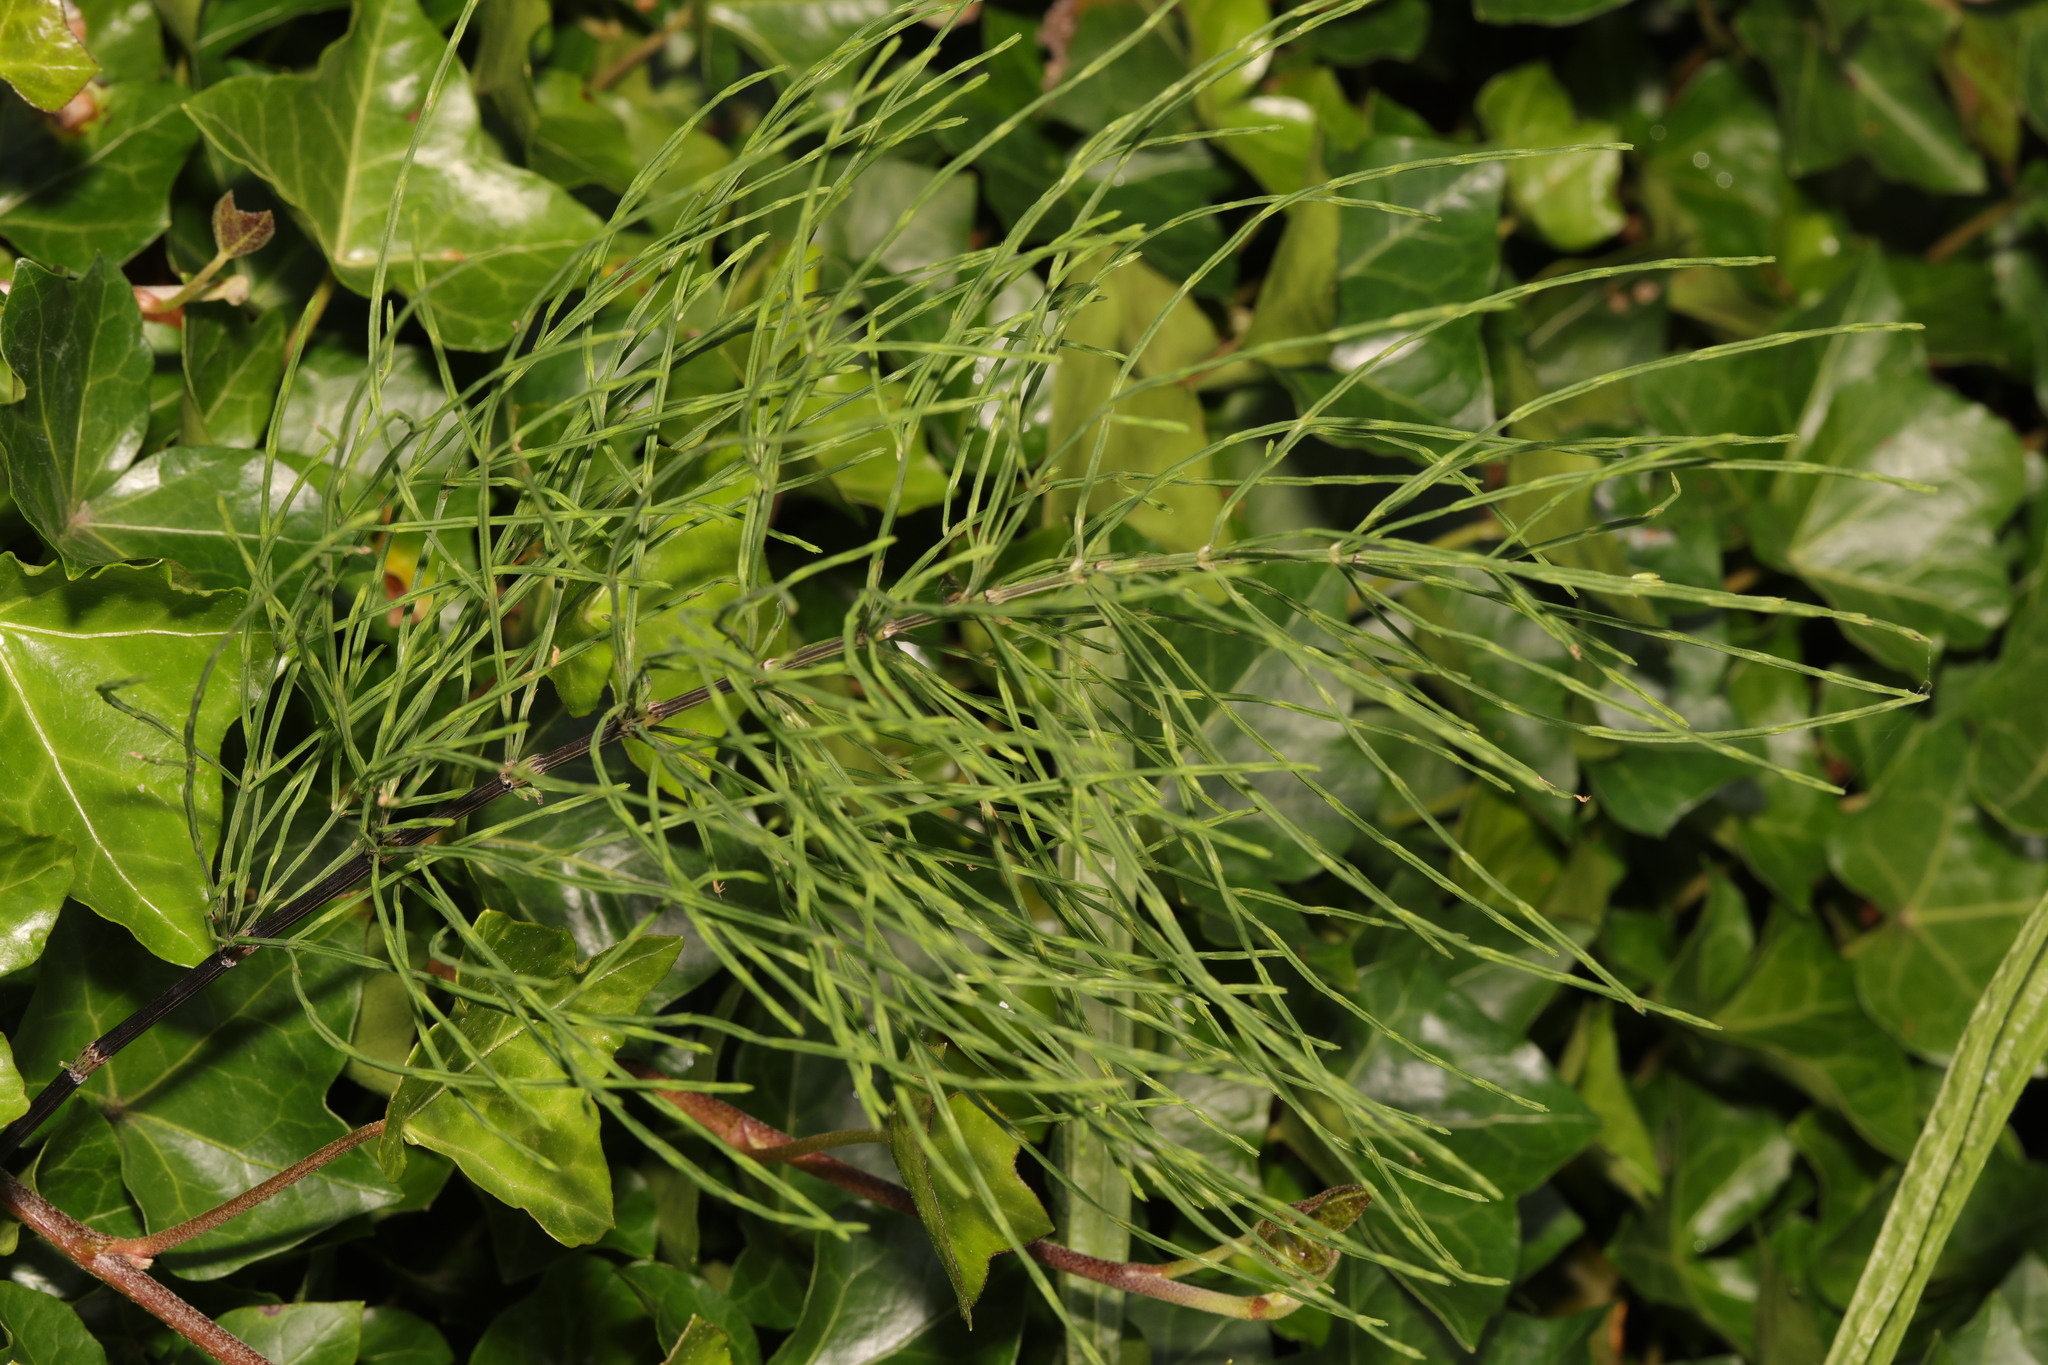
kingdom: Plantae
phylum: Tracheophyta
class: Polypodiopsida
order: Equisetales
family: Equisetaceae
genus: Equisetum
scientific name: Equisetum arvense
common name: Field horsetail
